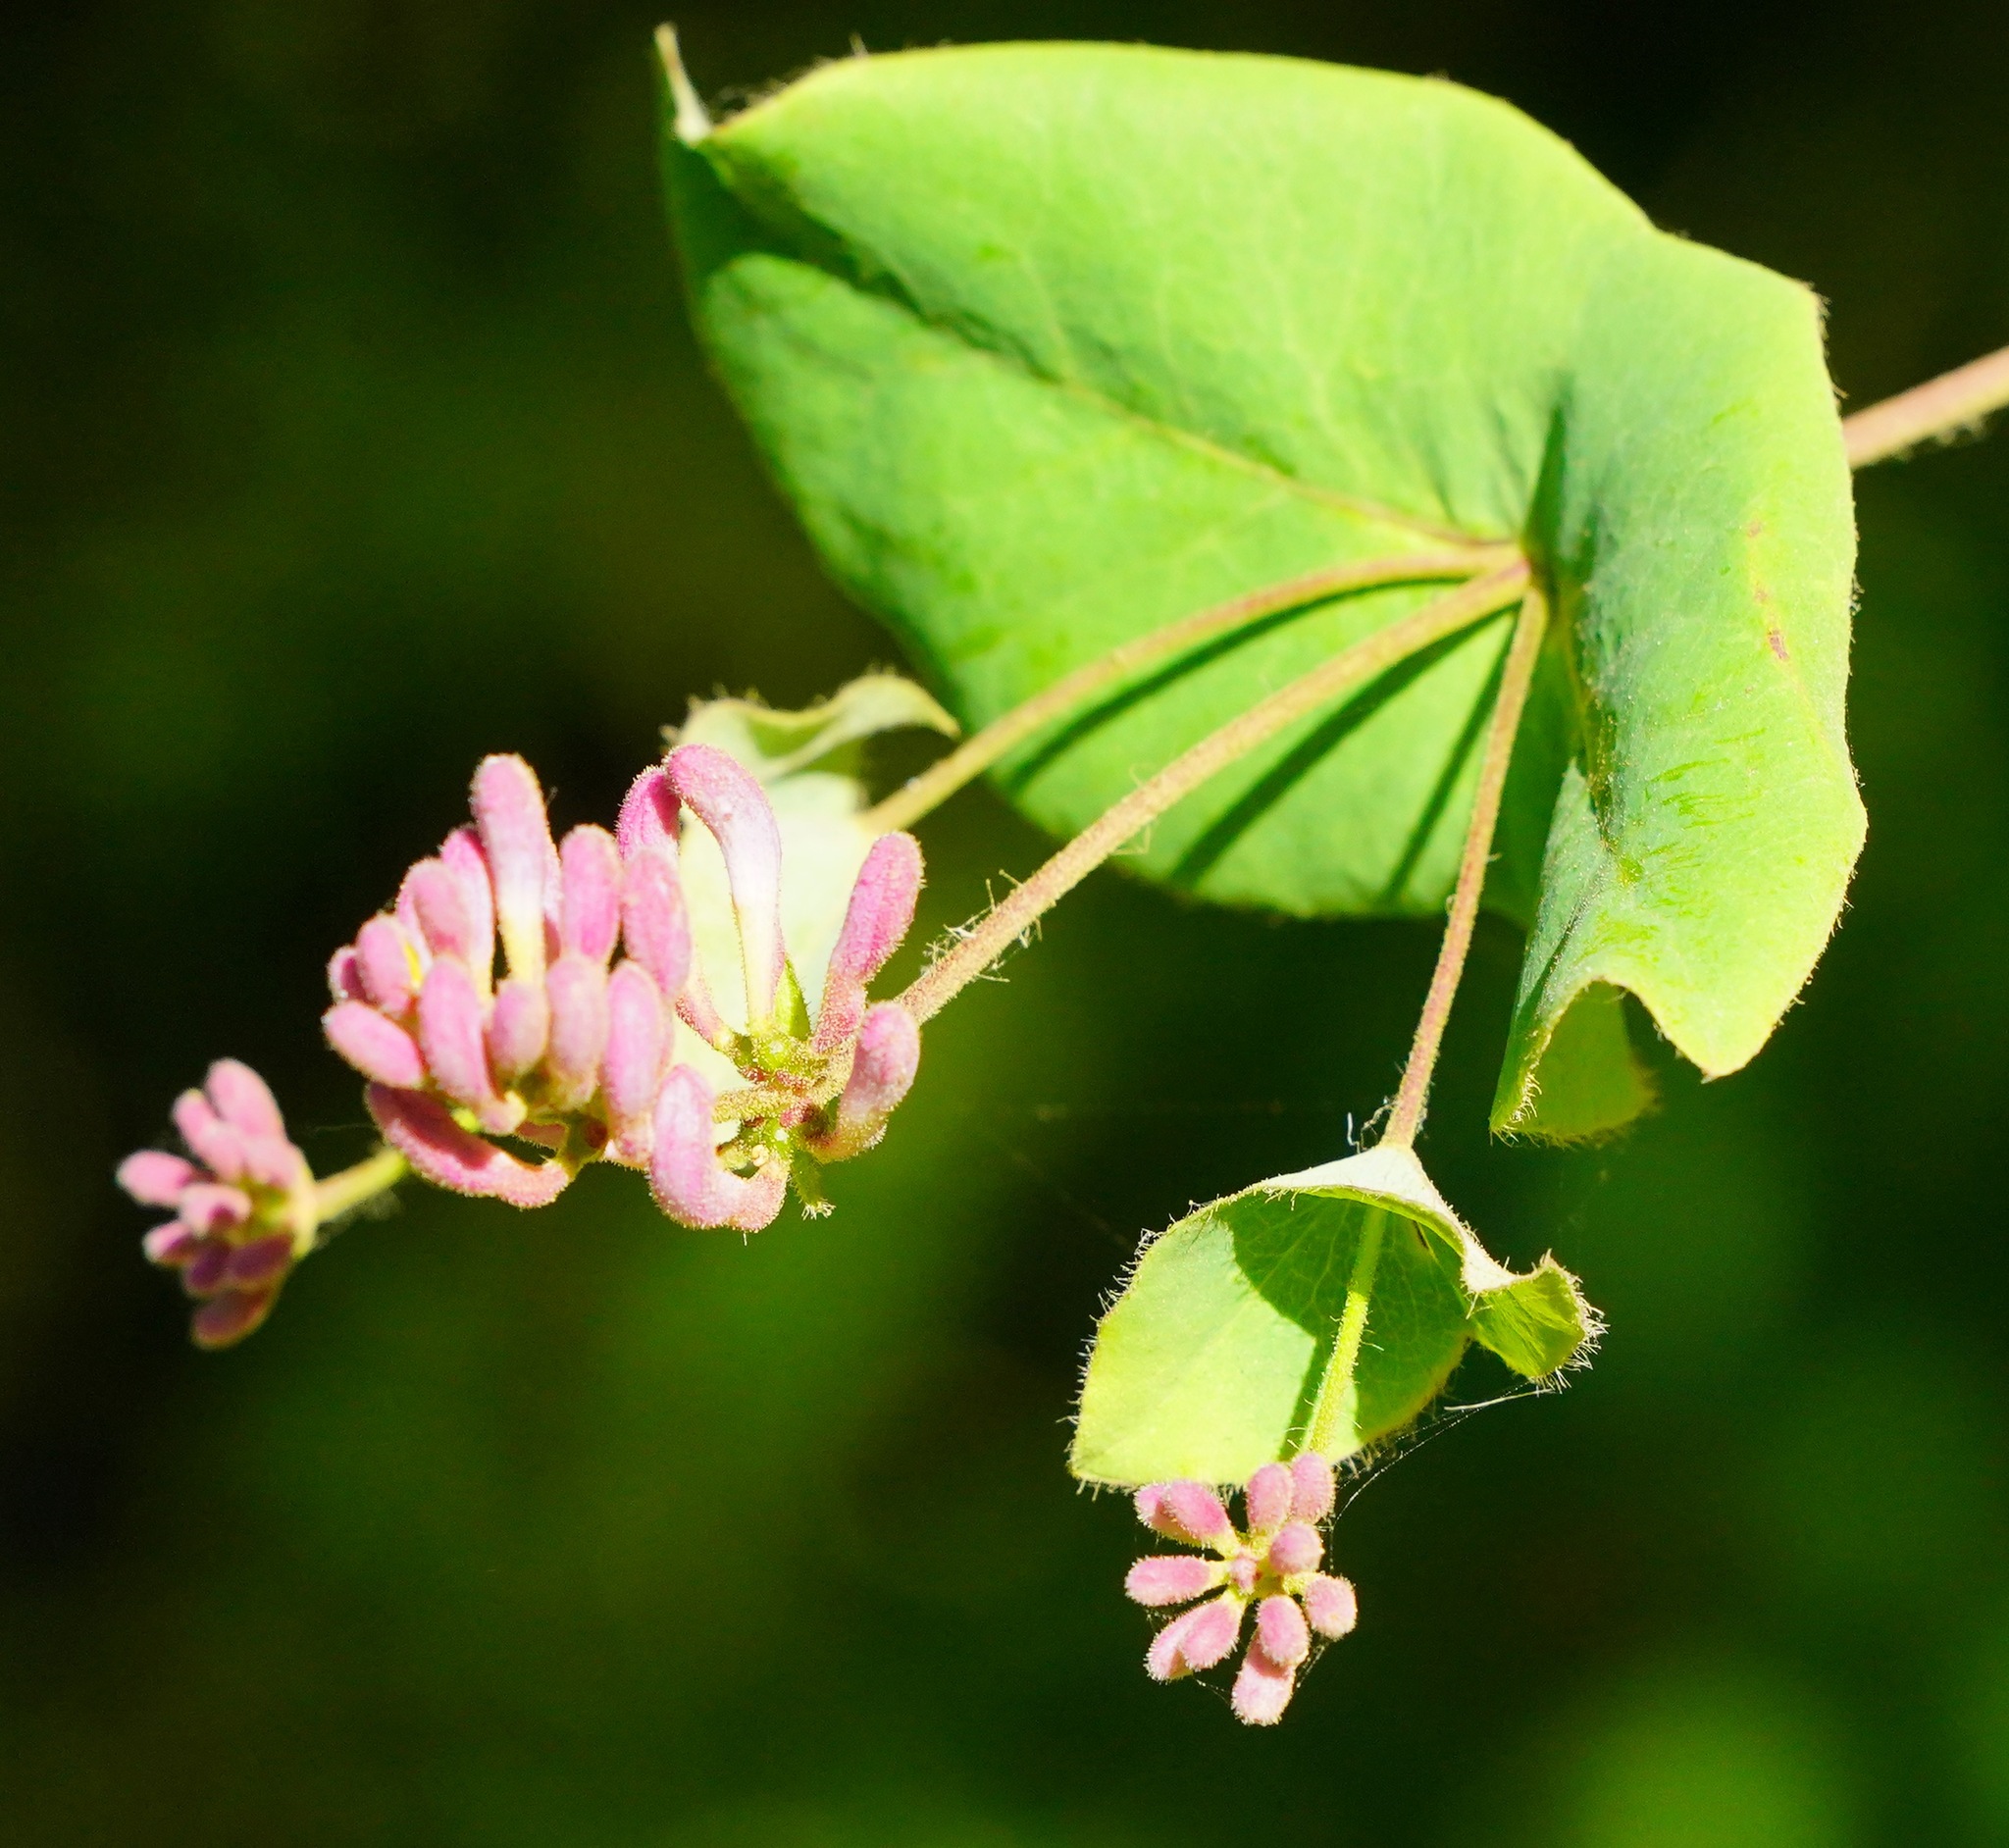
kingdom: Plantae
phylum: Tracheophyta
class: Magnoliopsida
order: Dipsacales
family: Caprifoliaceae
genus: Lonicera
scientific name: Lonicera hispidula
